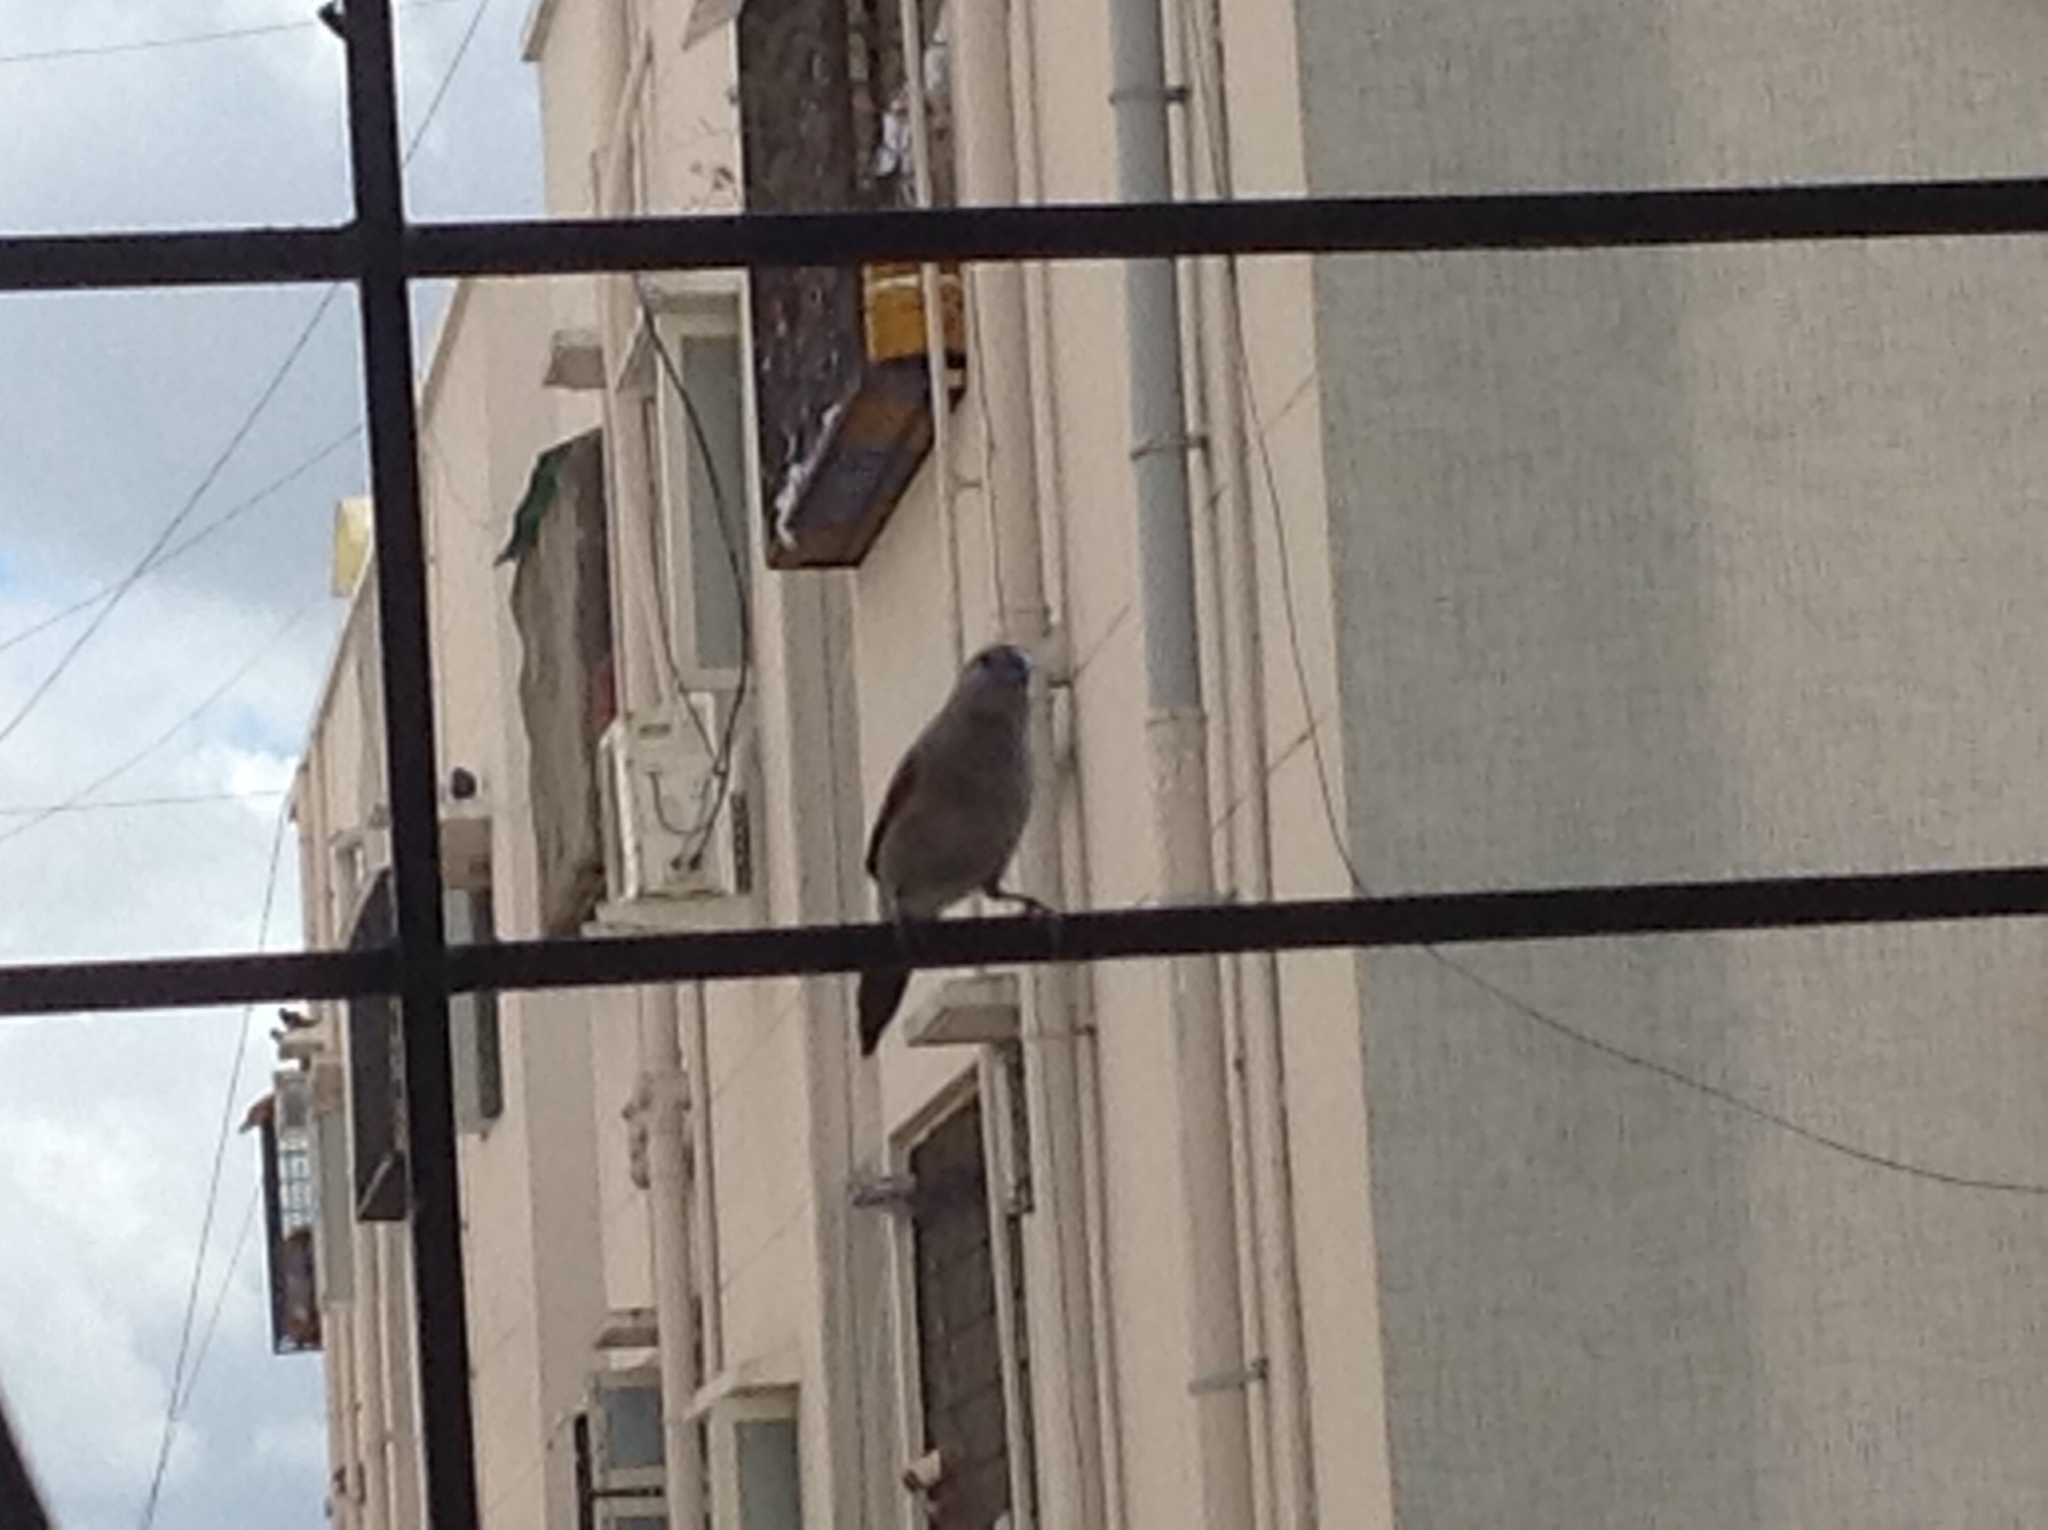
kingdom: Animalia
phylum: Chordata
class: Aves
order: Passeriformes
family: Estrildidae
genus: Euodice
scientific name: Euodice malabarica
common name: Indian silverbill
